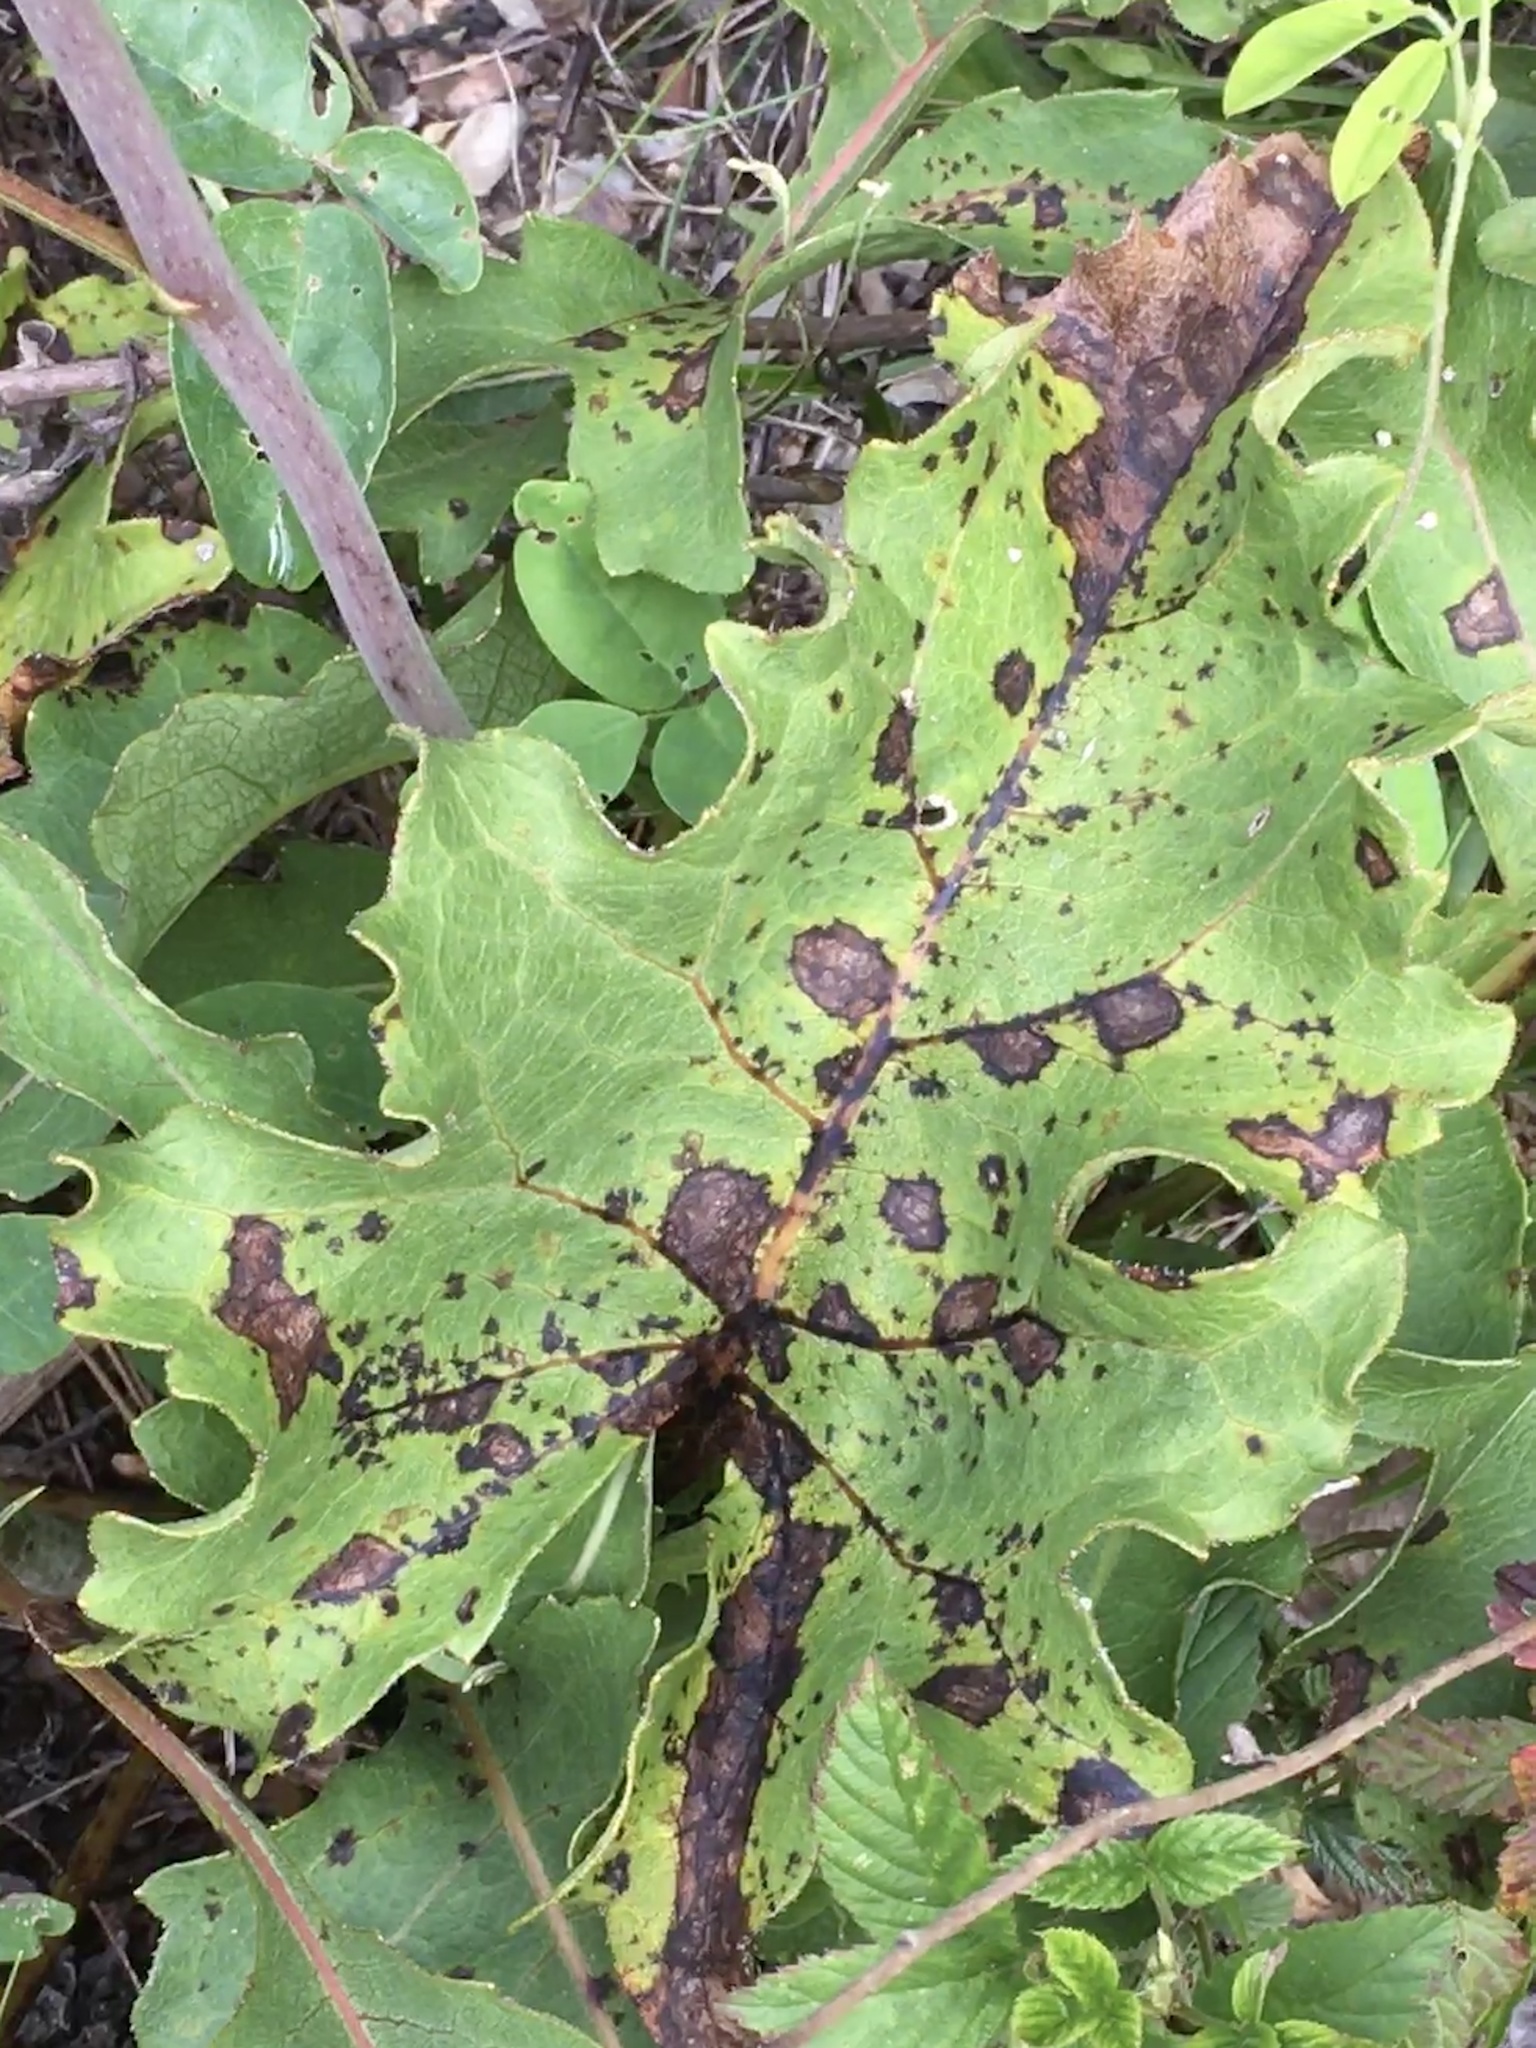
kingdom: Plantae
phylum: Tracheophyta
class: Magnoliopsida
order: Asterales
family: Asteraceae
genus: Silphium
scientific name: Silphium compositum
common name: Lesser basal-leaf rosinweed
